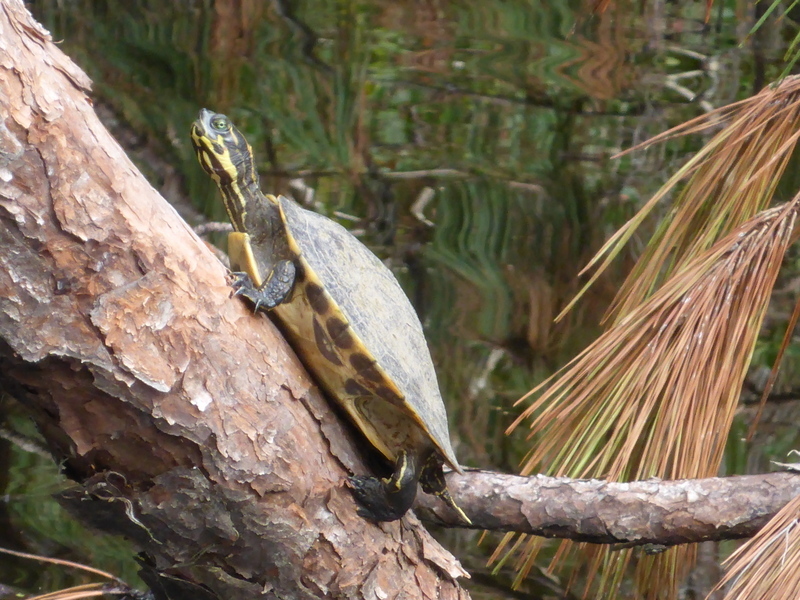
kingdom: Animalia
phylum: Chordata
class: Testudines
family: Emydidae
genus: Pseudemys
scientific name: Pseudemys concinna
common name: Eastern river cooter
